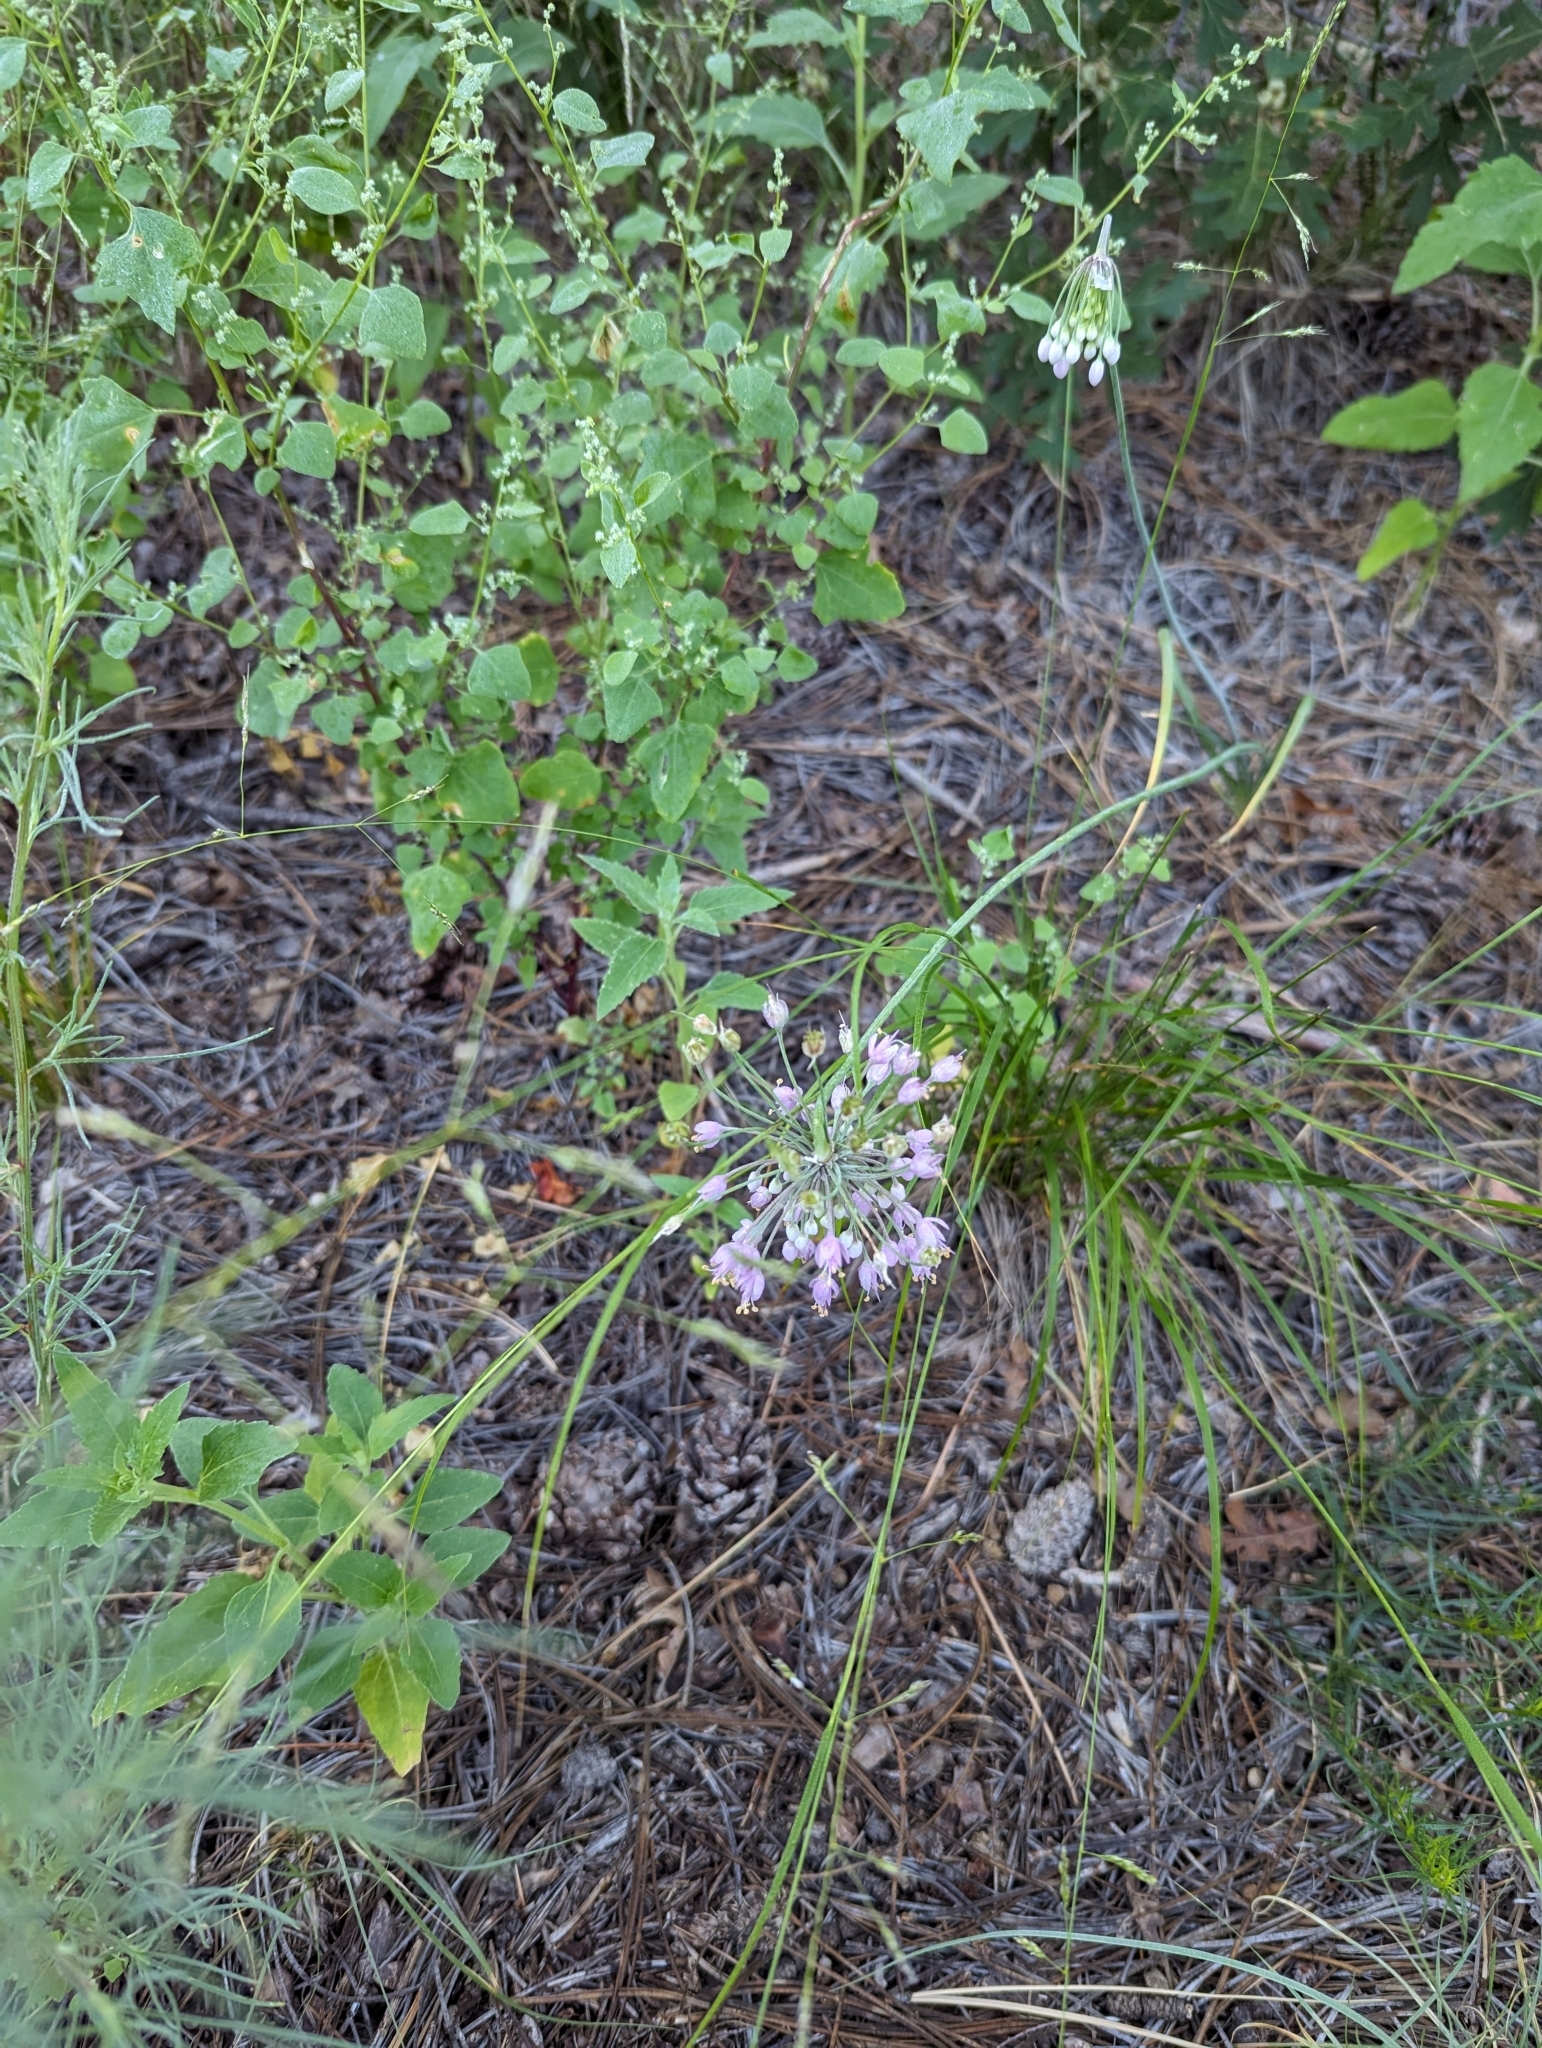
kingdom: Plantae
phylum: Tracheophyta
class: Liliopsida
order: Asparagales
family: Amaryllidaceae
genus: Allium
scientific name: Allium cernuum
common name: Nodding onion
